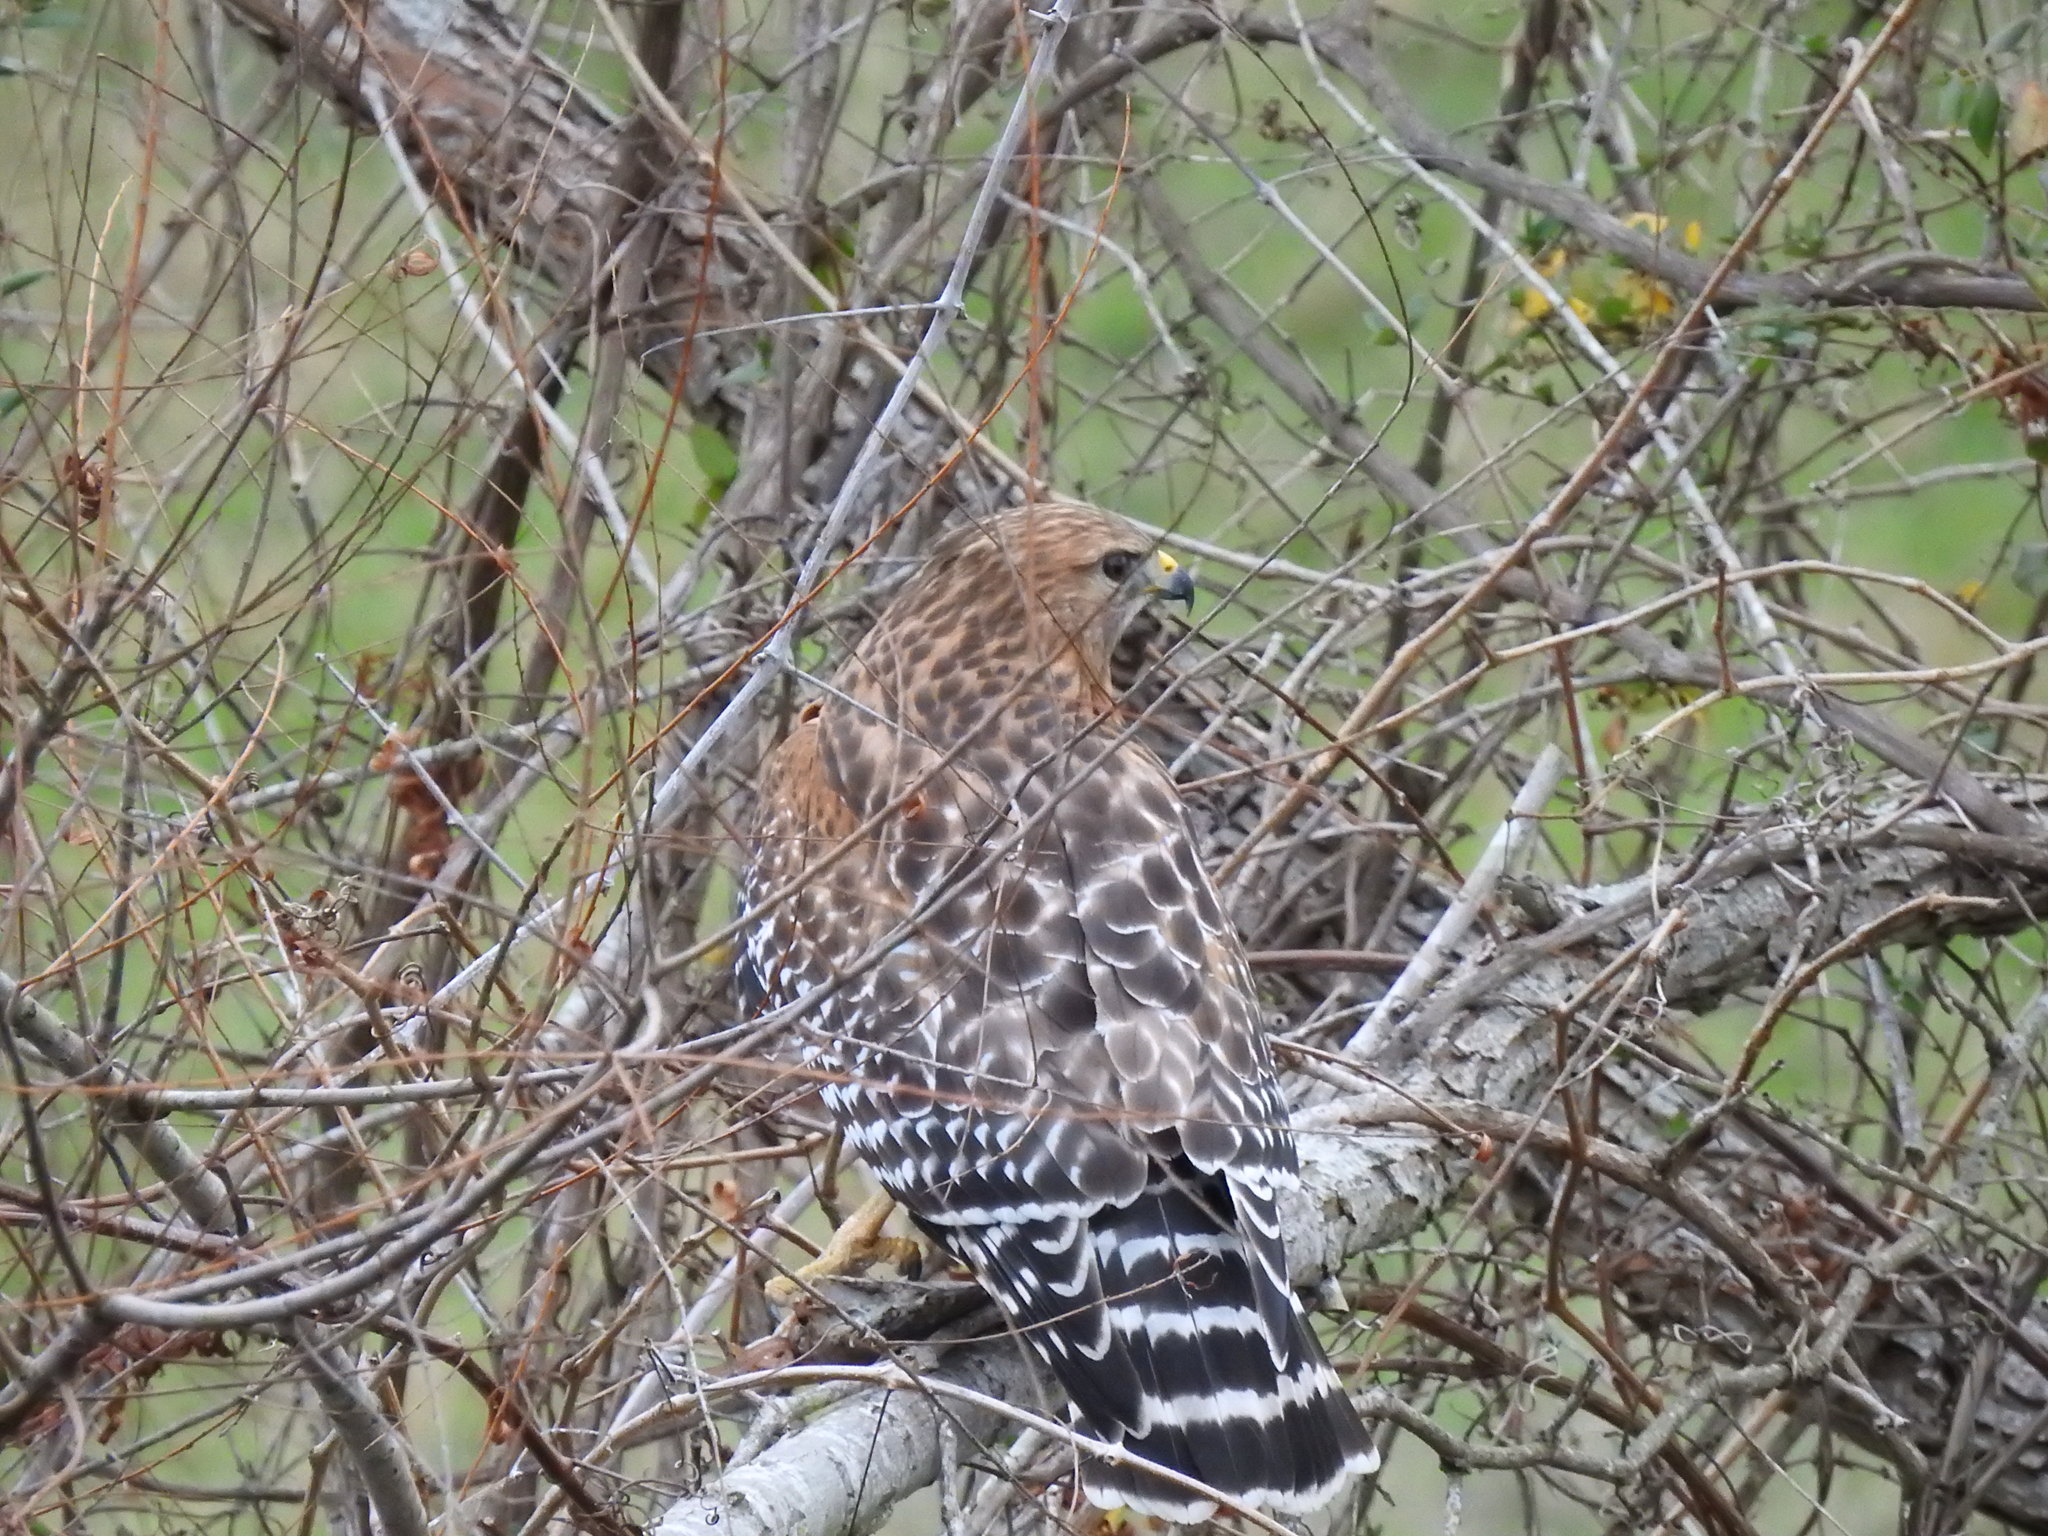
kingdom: Animalia
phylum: Chordata
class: Aves
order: Accipitriformes
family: Accipitridae
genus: Buteo
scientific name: Buteo lineatus
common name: Red-shouldered hawk
